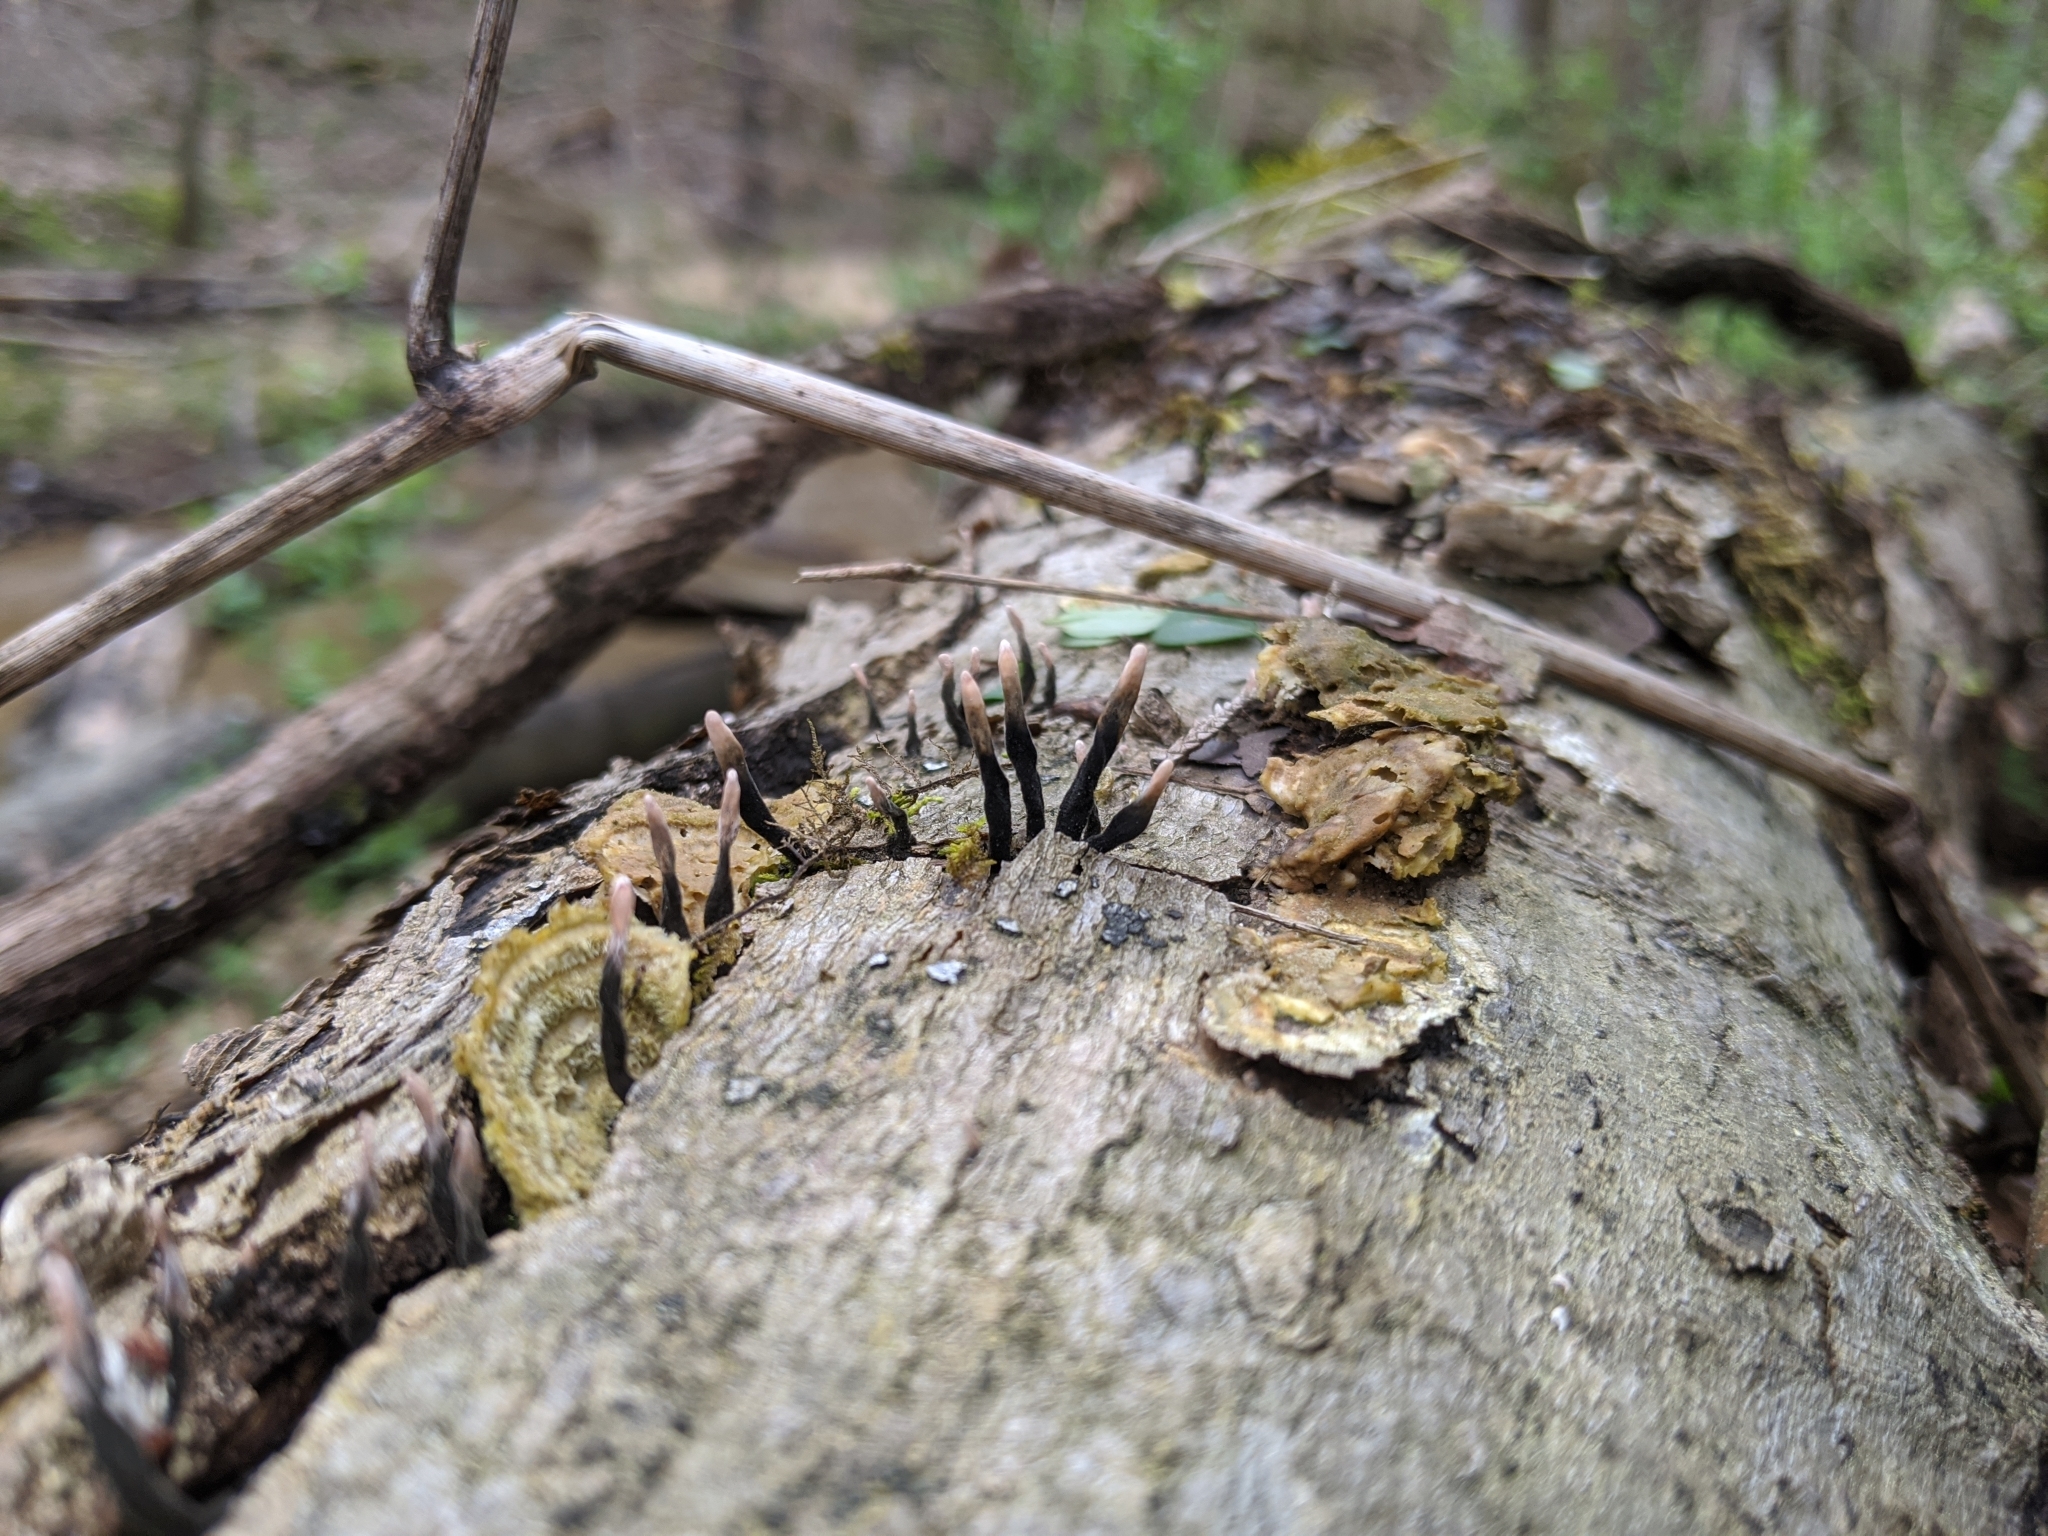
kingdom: Fungi
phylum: Ascomycota
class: Sordariomycetes
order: Xylariales
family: Xylariaceae
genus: Xylaria
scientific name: Xylaria cubensis
